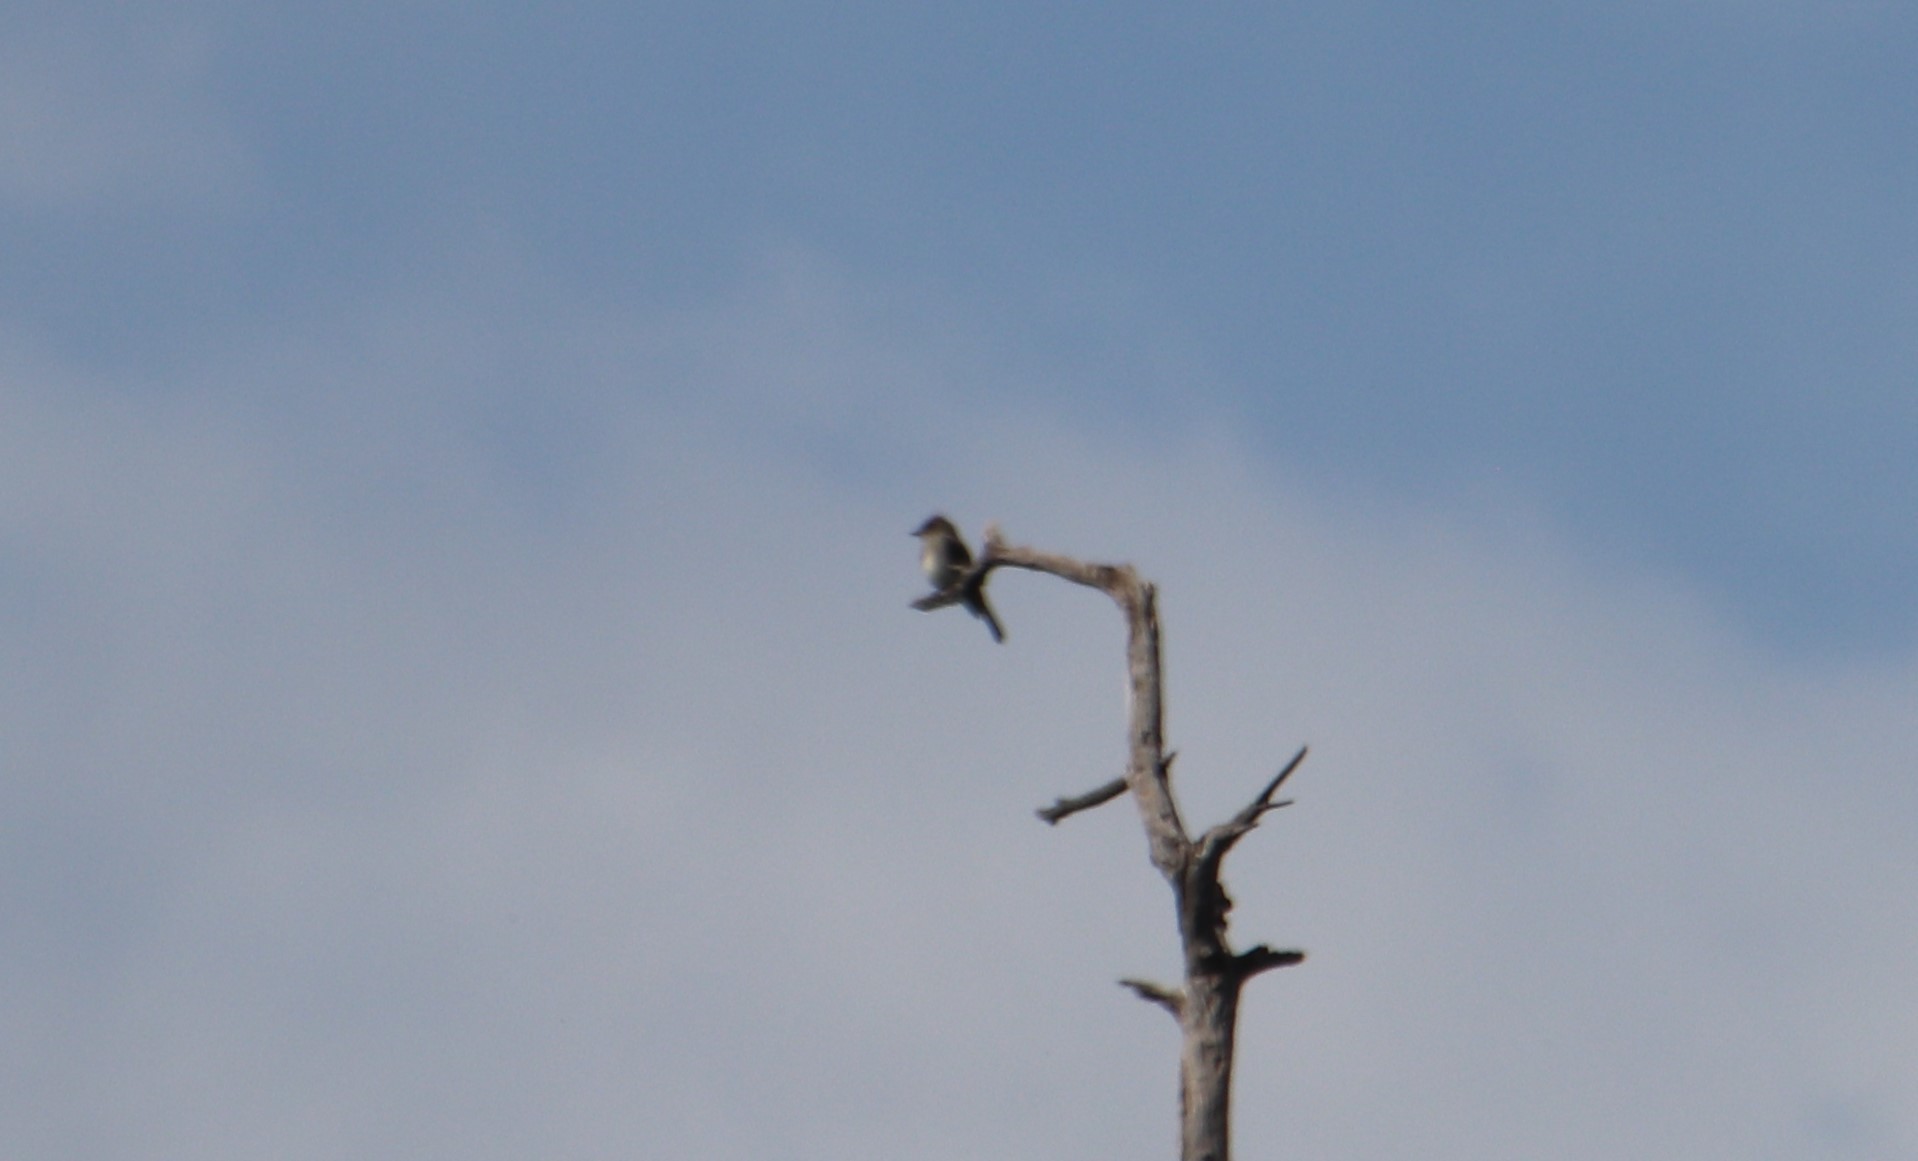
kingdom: Animalia
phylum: Chordata
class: Aves
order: Passeriformes
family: Tyrannidae
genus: Contopus
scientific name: Contopus cooperi
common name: Olive-sided flycatcher
